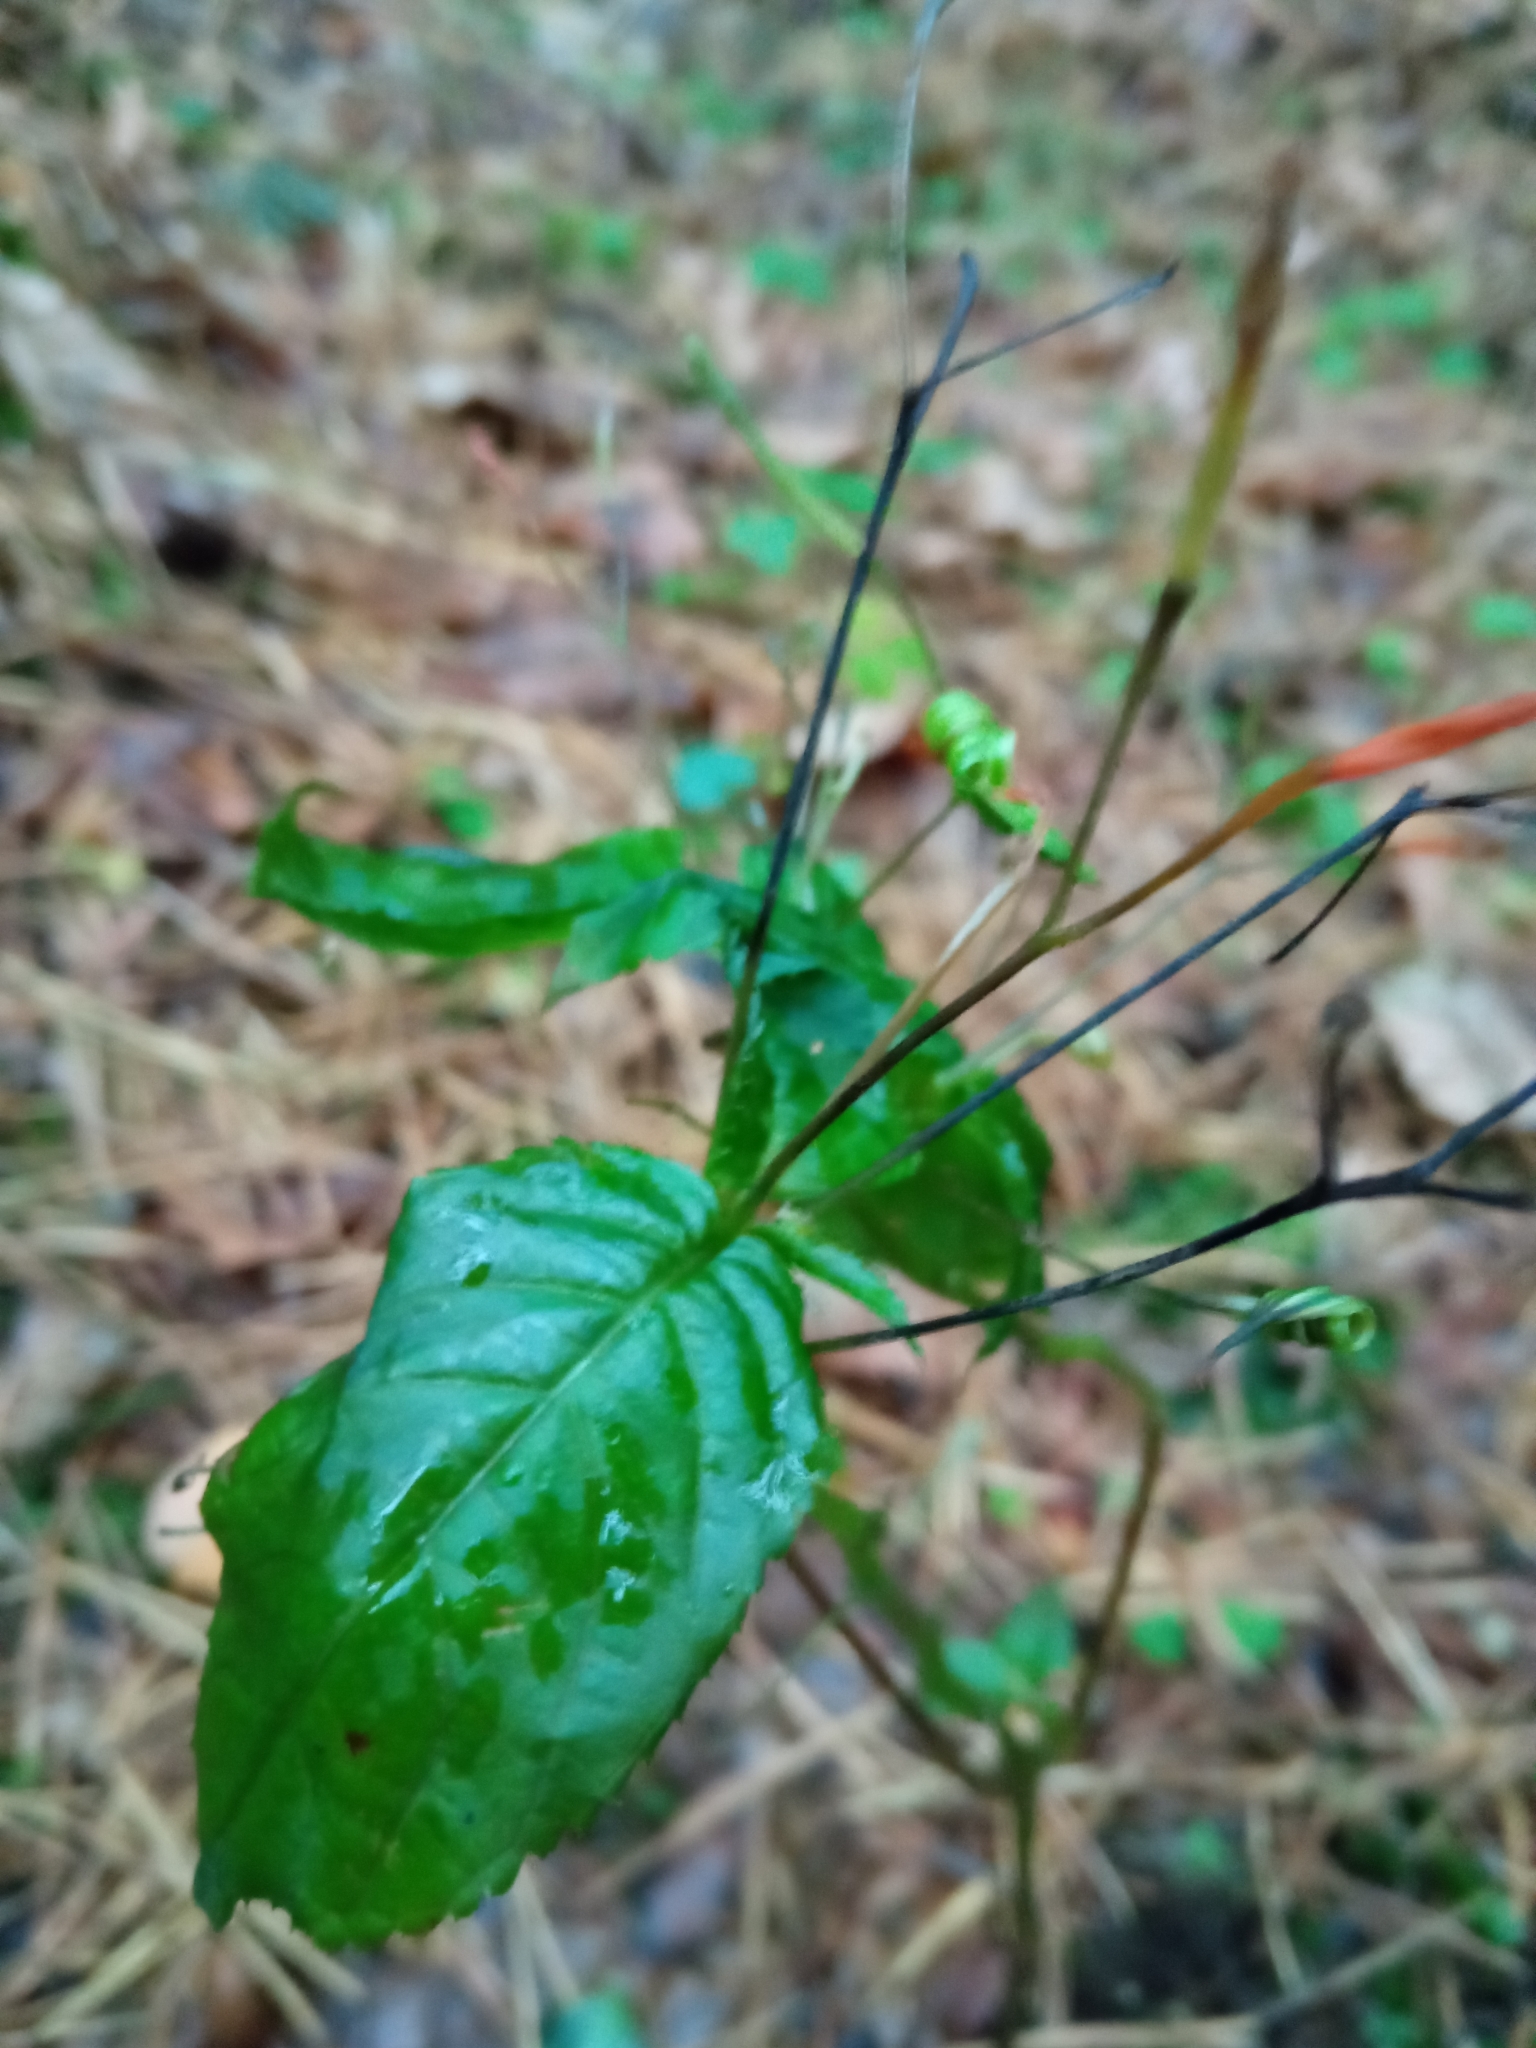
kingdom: Plantae
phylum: Tracheophyta
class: Magnoliopsida
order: Ericales
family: Balsaminaceae
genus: Impatiens
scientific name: Impatiens parviflora
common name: Small balsam
